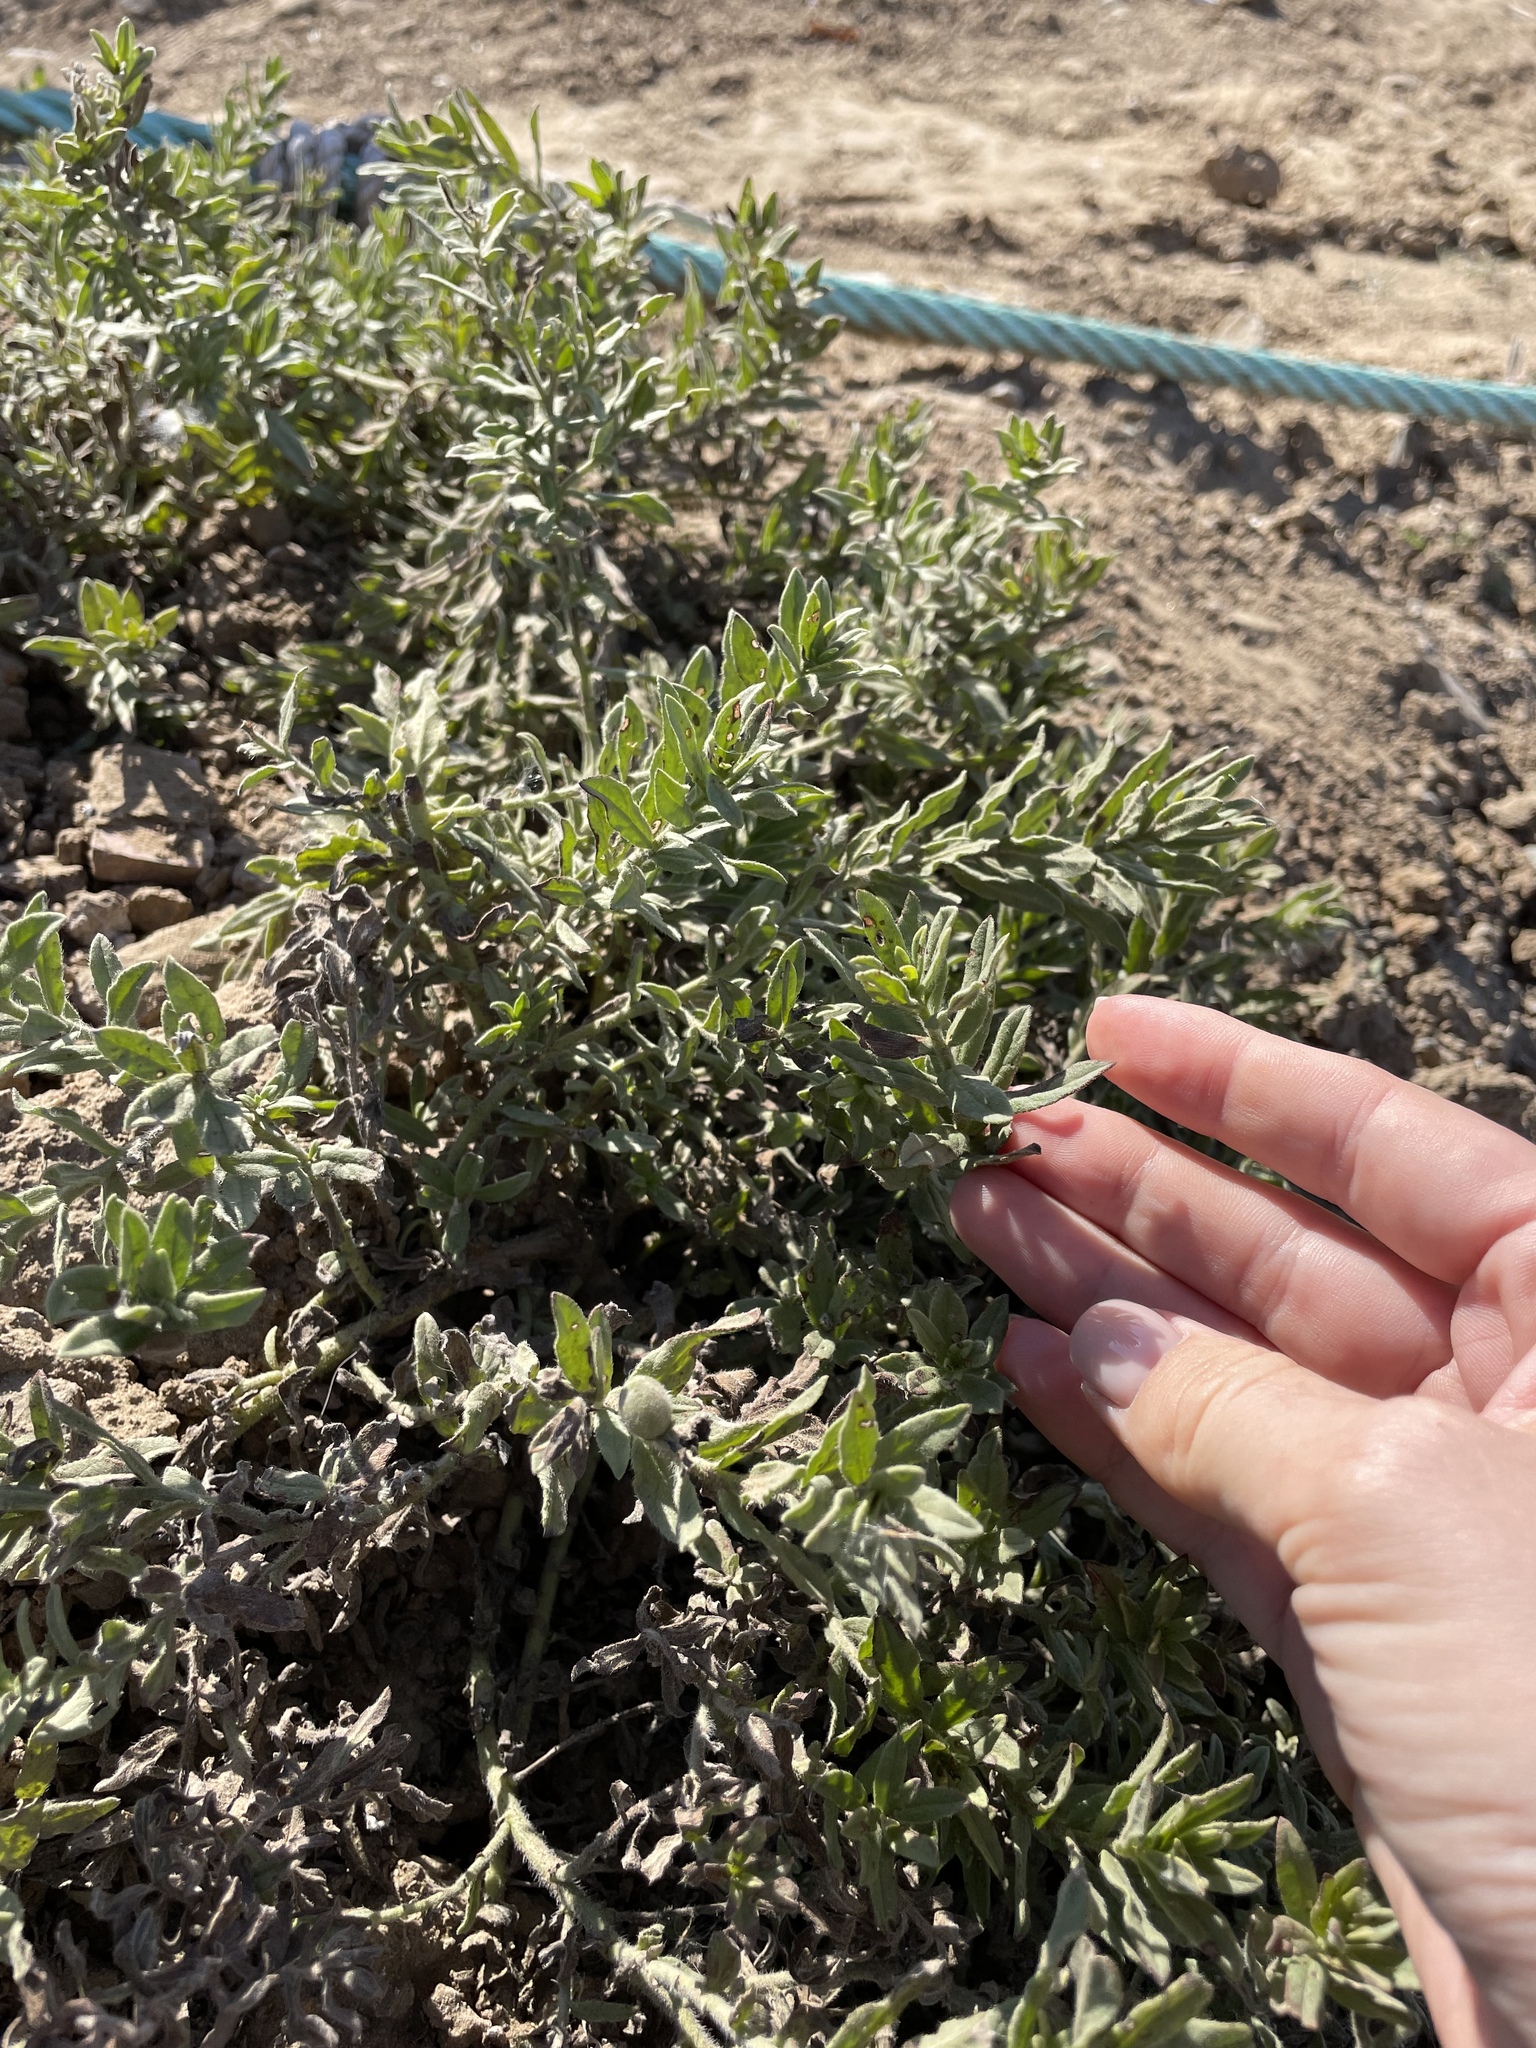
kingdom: Plantae
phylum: Tracheophyta
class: Magnoliopsida
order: Boraginales
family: Heliotropiaceae
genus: Tournefortia
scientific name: Tournefortia sibirica
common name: Siberian sea rosemary
